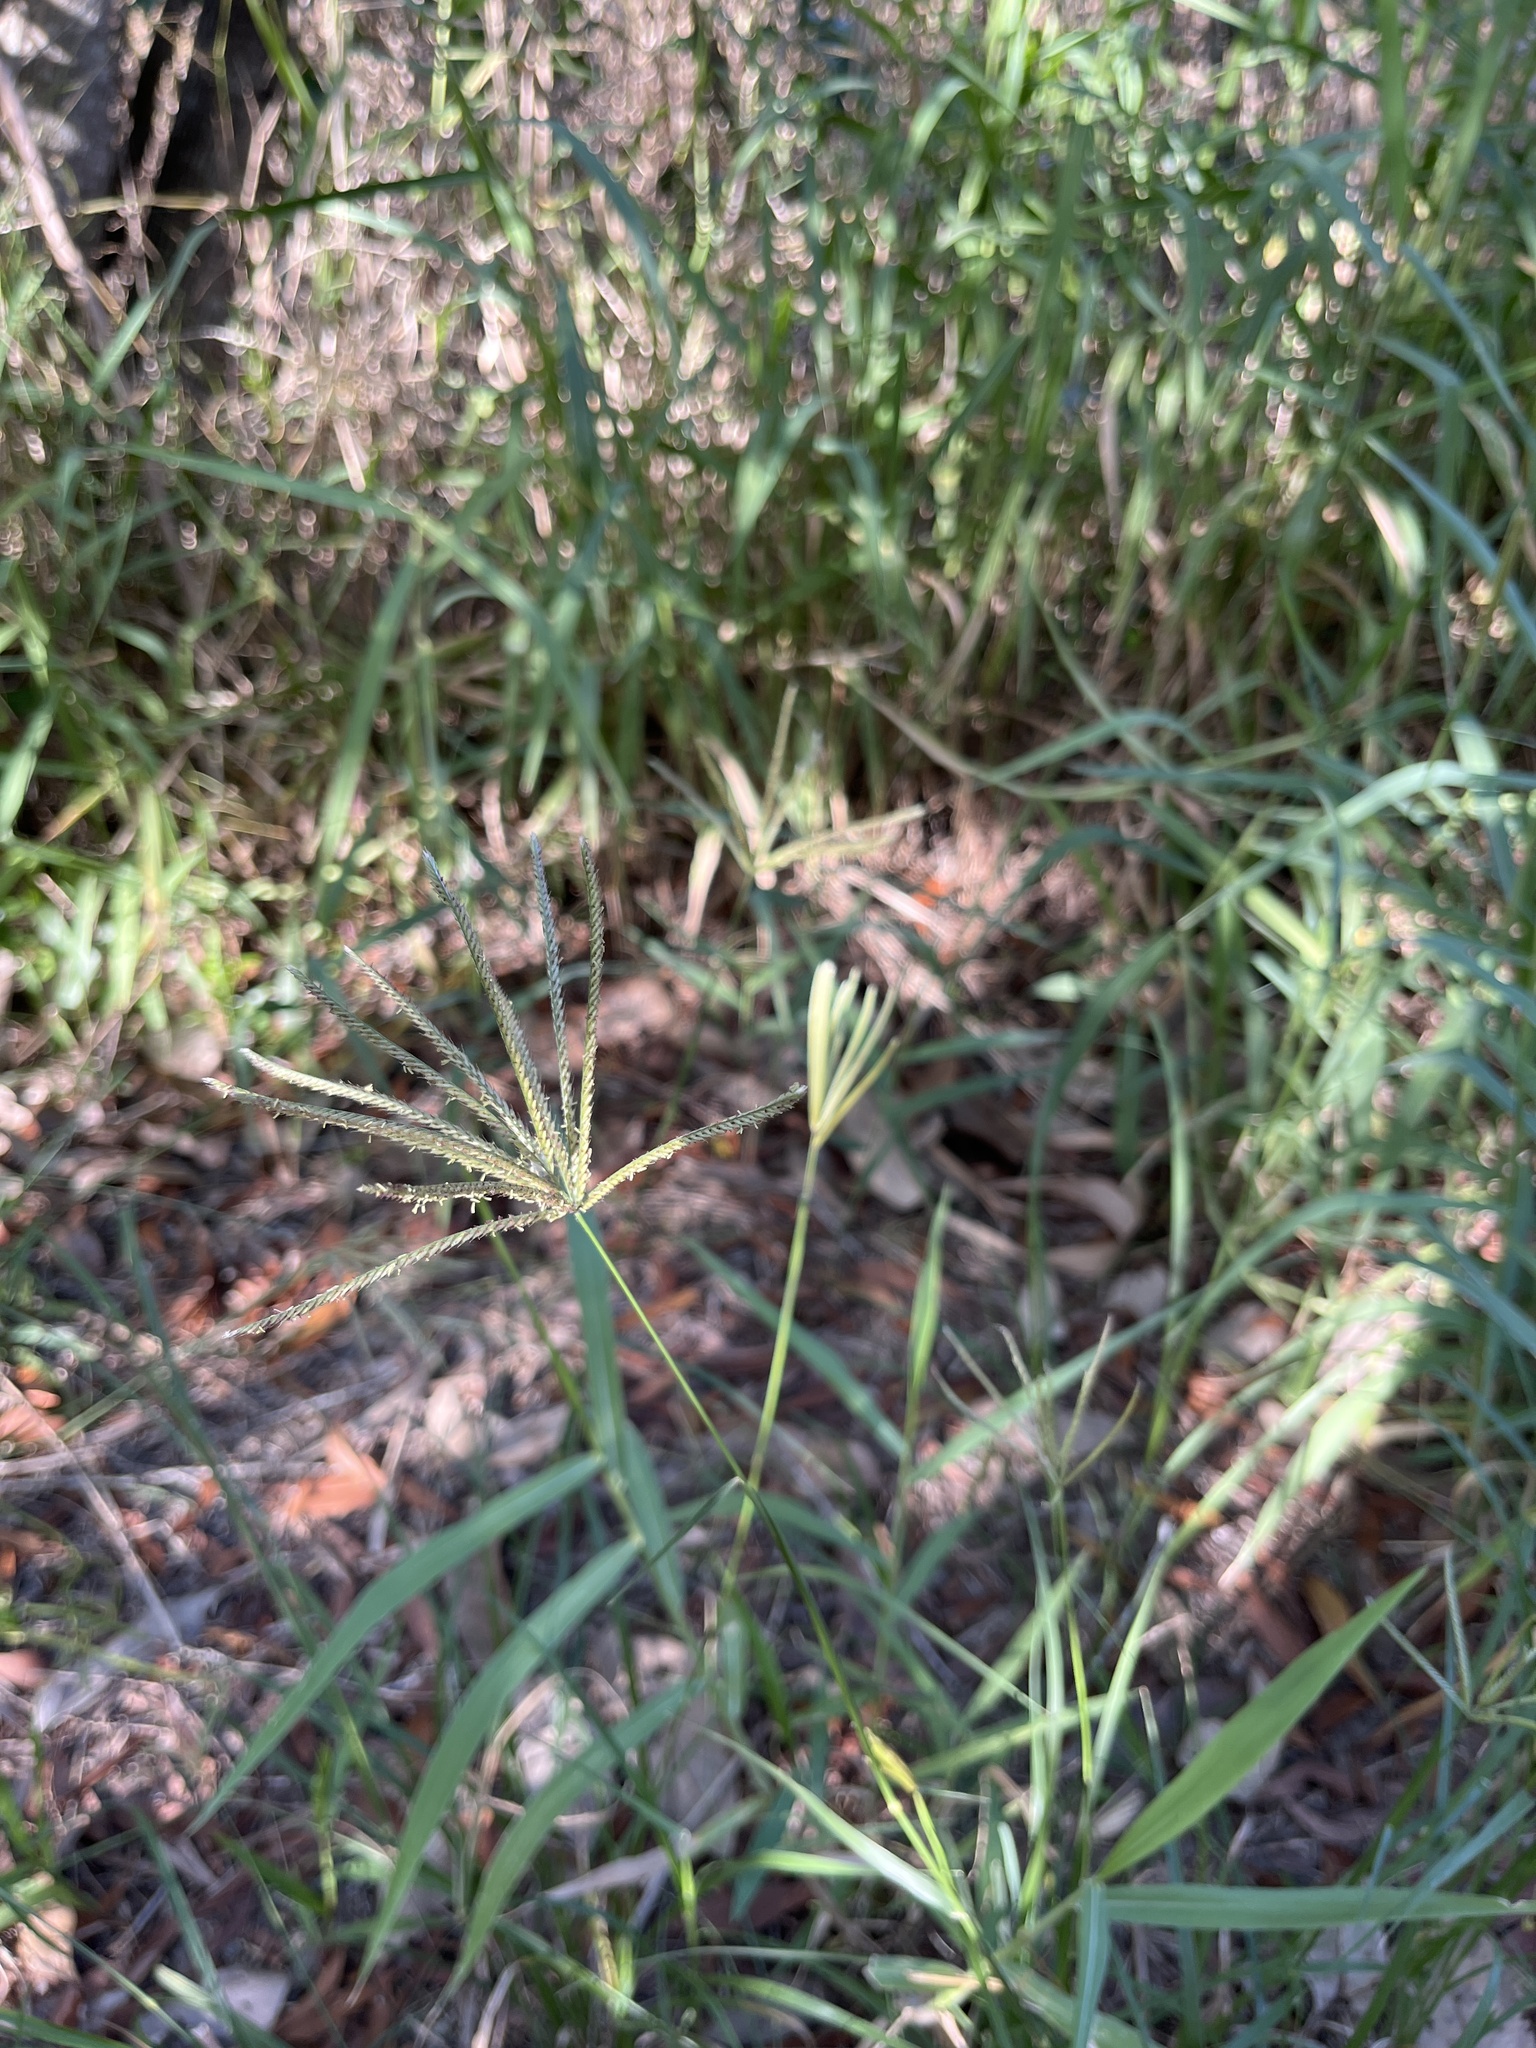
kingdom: Plantae
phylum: Tracheophyta
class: Liliopsida
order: Poales
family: Poaceae
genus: Chloris
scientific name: Chloris gayana
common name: Rhodes grass
